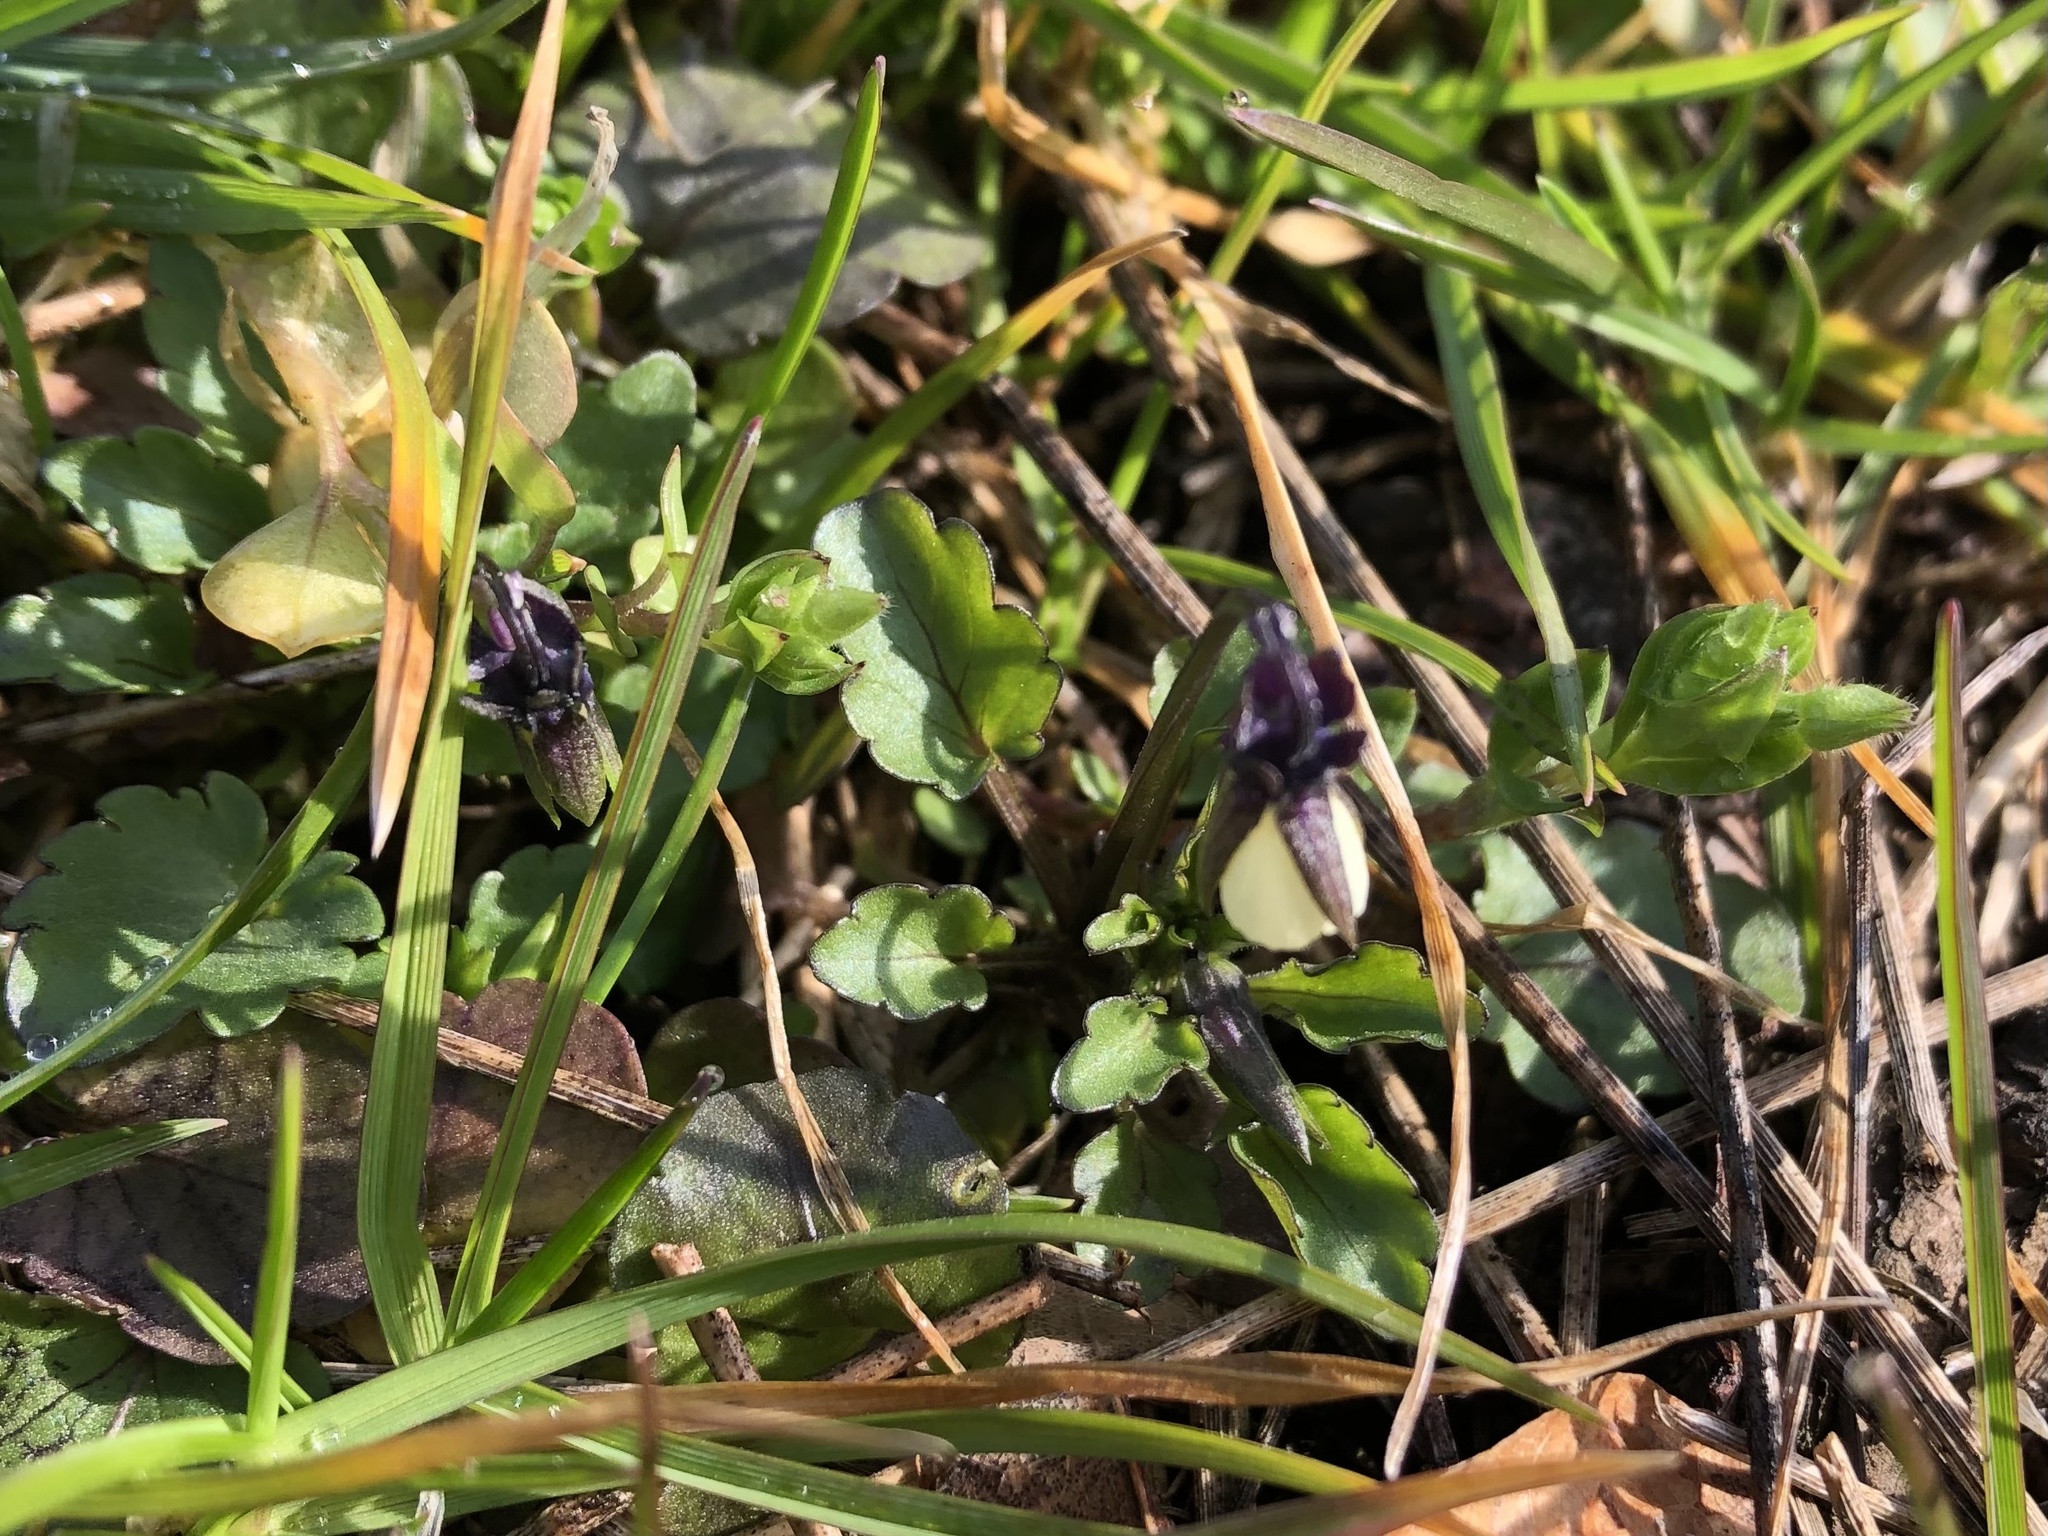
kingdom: Plantae
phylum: Tracheophyta
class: Magnoliopsida
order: Malpighiales
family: Violaceae
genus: Viola
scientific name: Viola arvensis
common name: Field pansy
